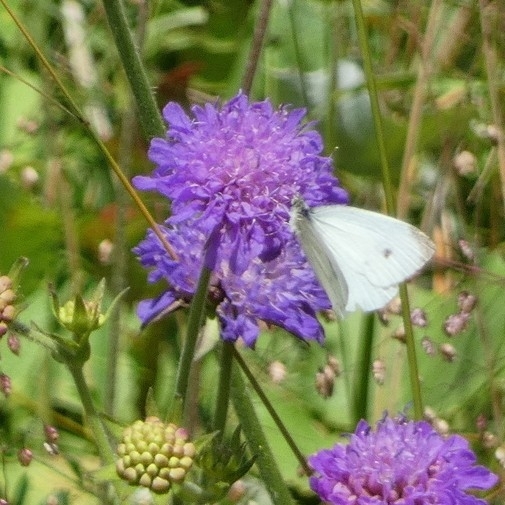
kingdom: Animalia
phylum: Arthropoda
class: Insecta
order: Lepidoptera
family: Pieridae
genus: Pieris
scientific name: Pieris rapae
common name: Small white
